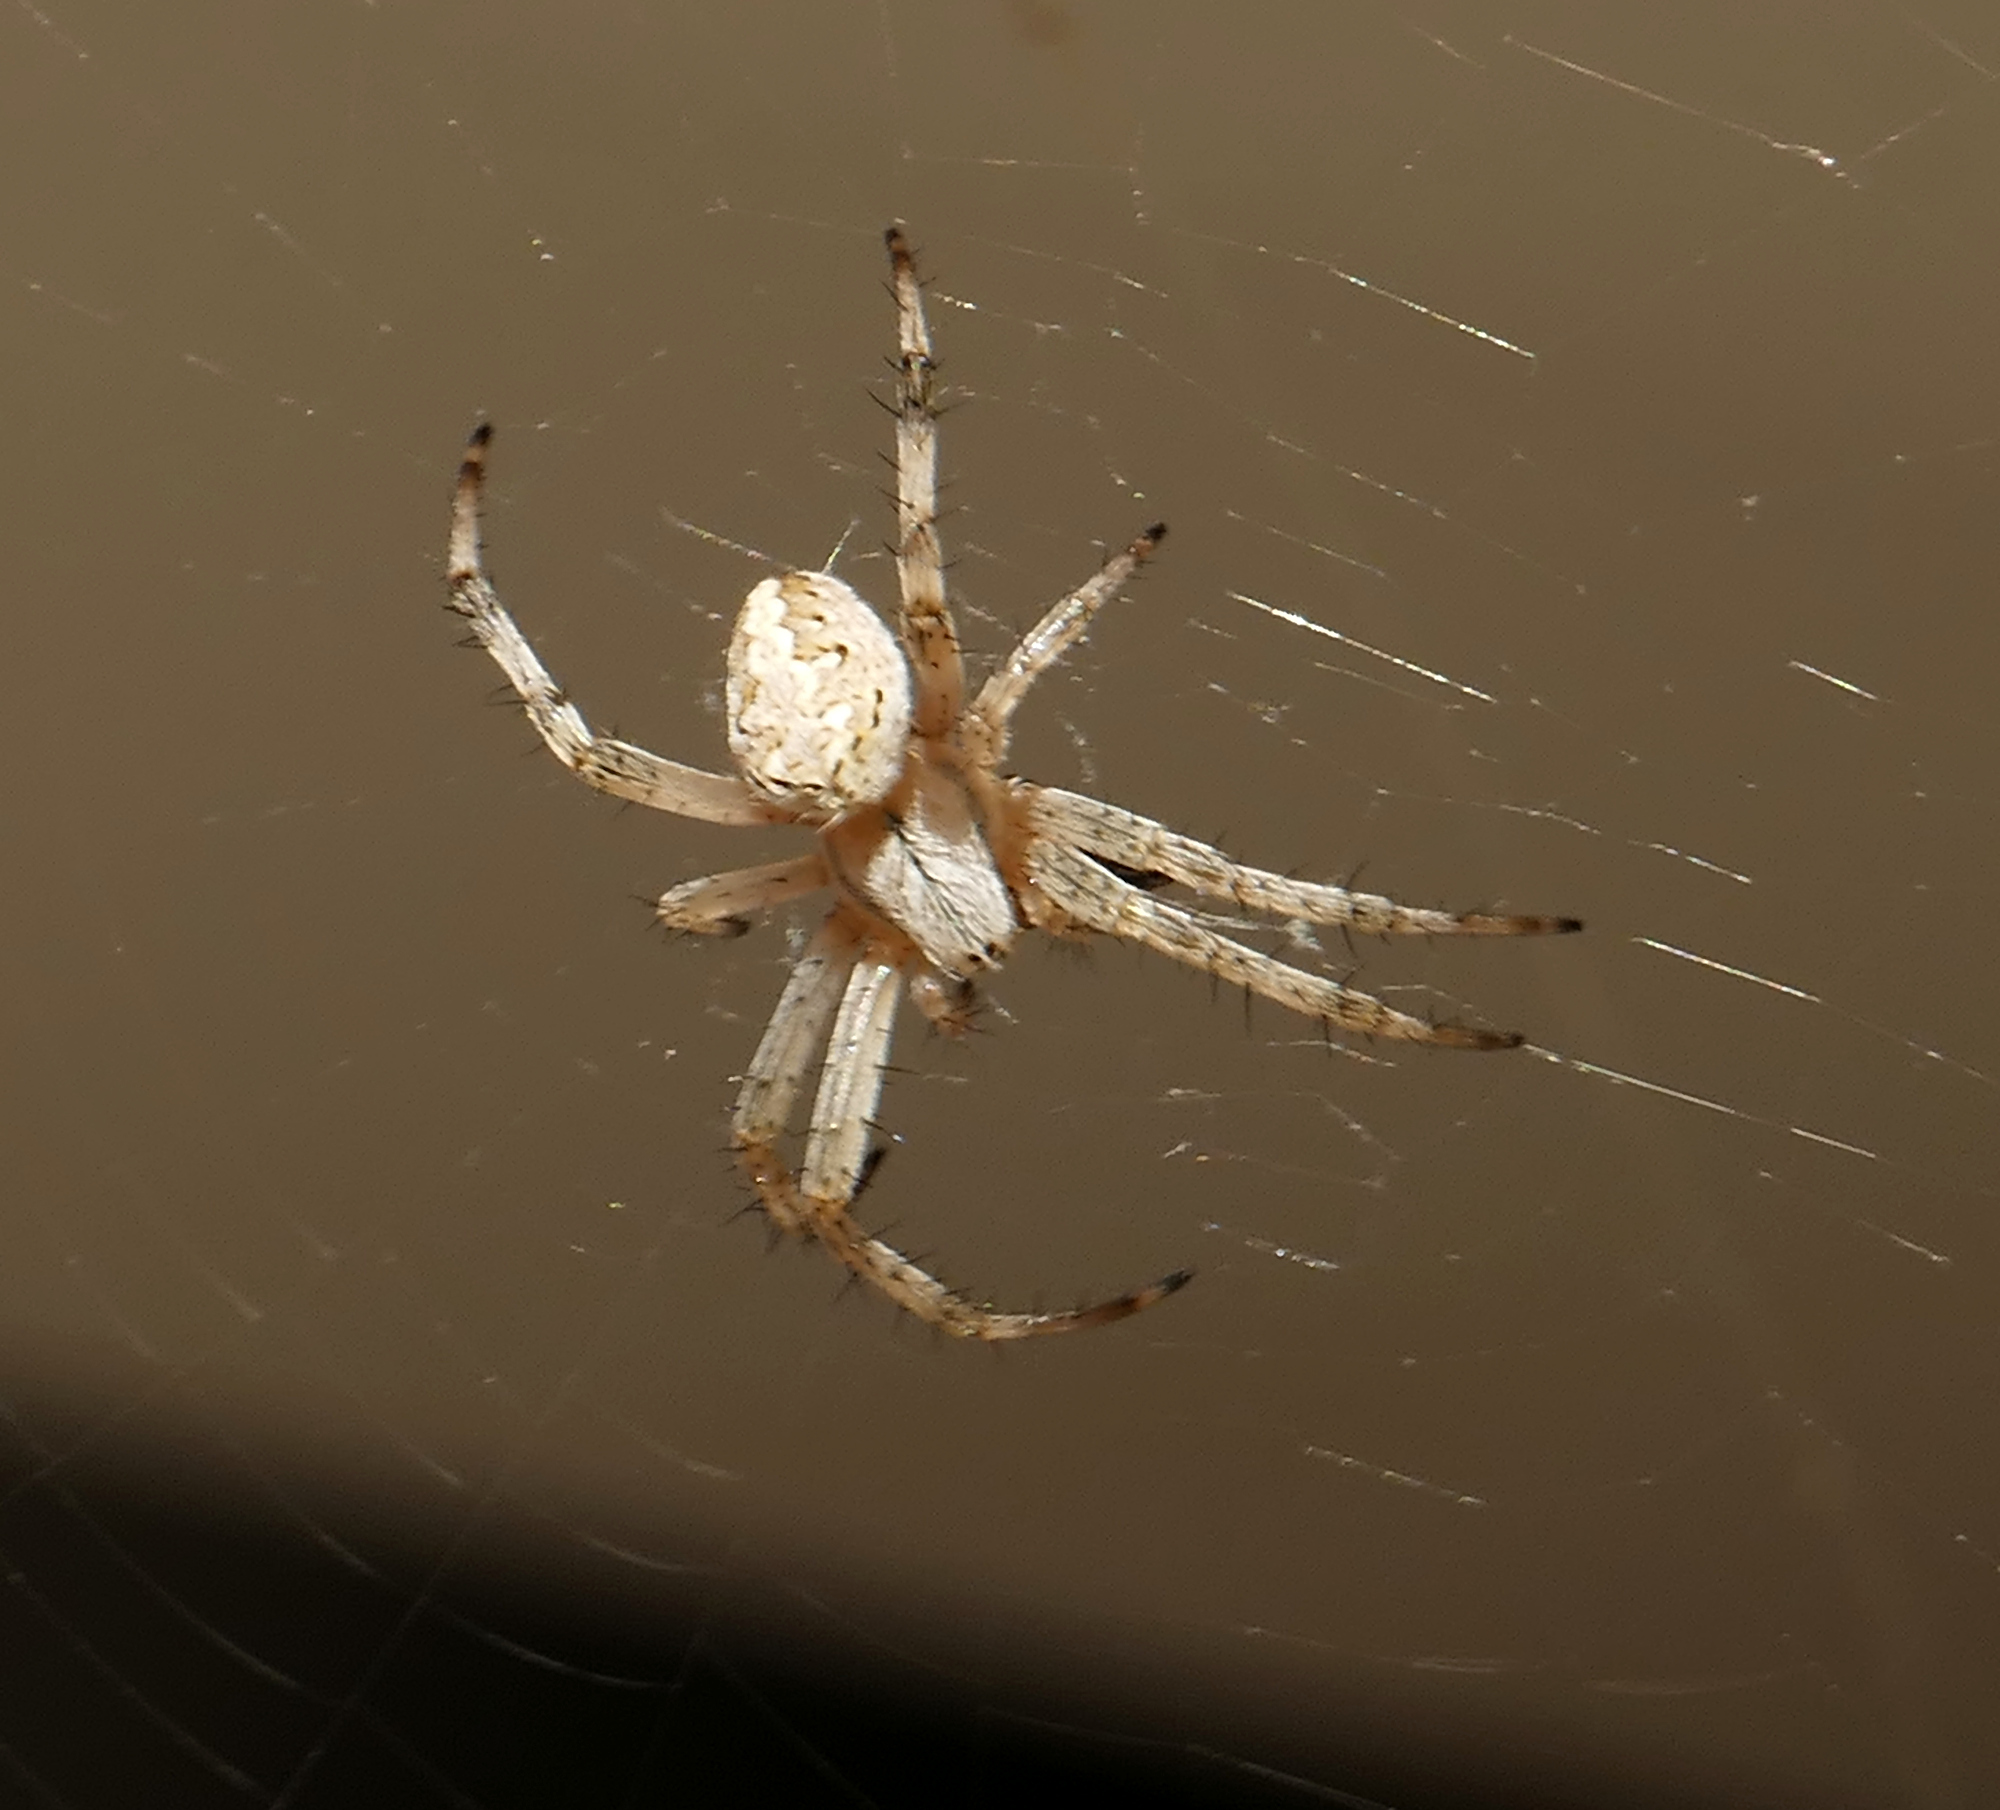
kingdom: Animalia
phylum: Arthropoda
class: Arachnida
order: Araneae
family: Araneidae
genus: Neoscona
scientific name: Neoscona oaxacensis
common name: Orb weavers
